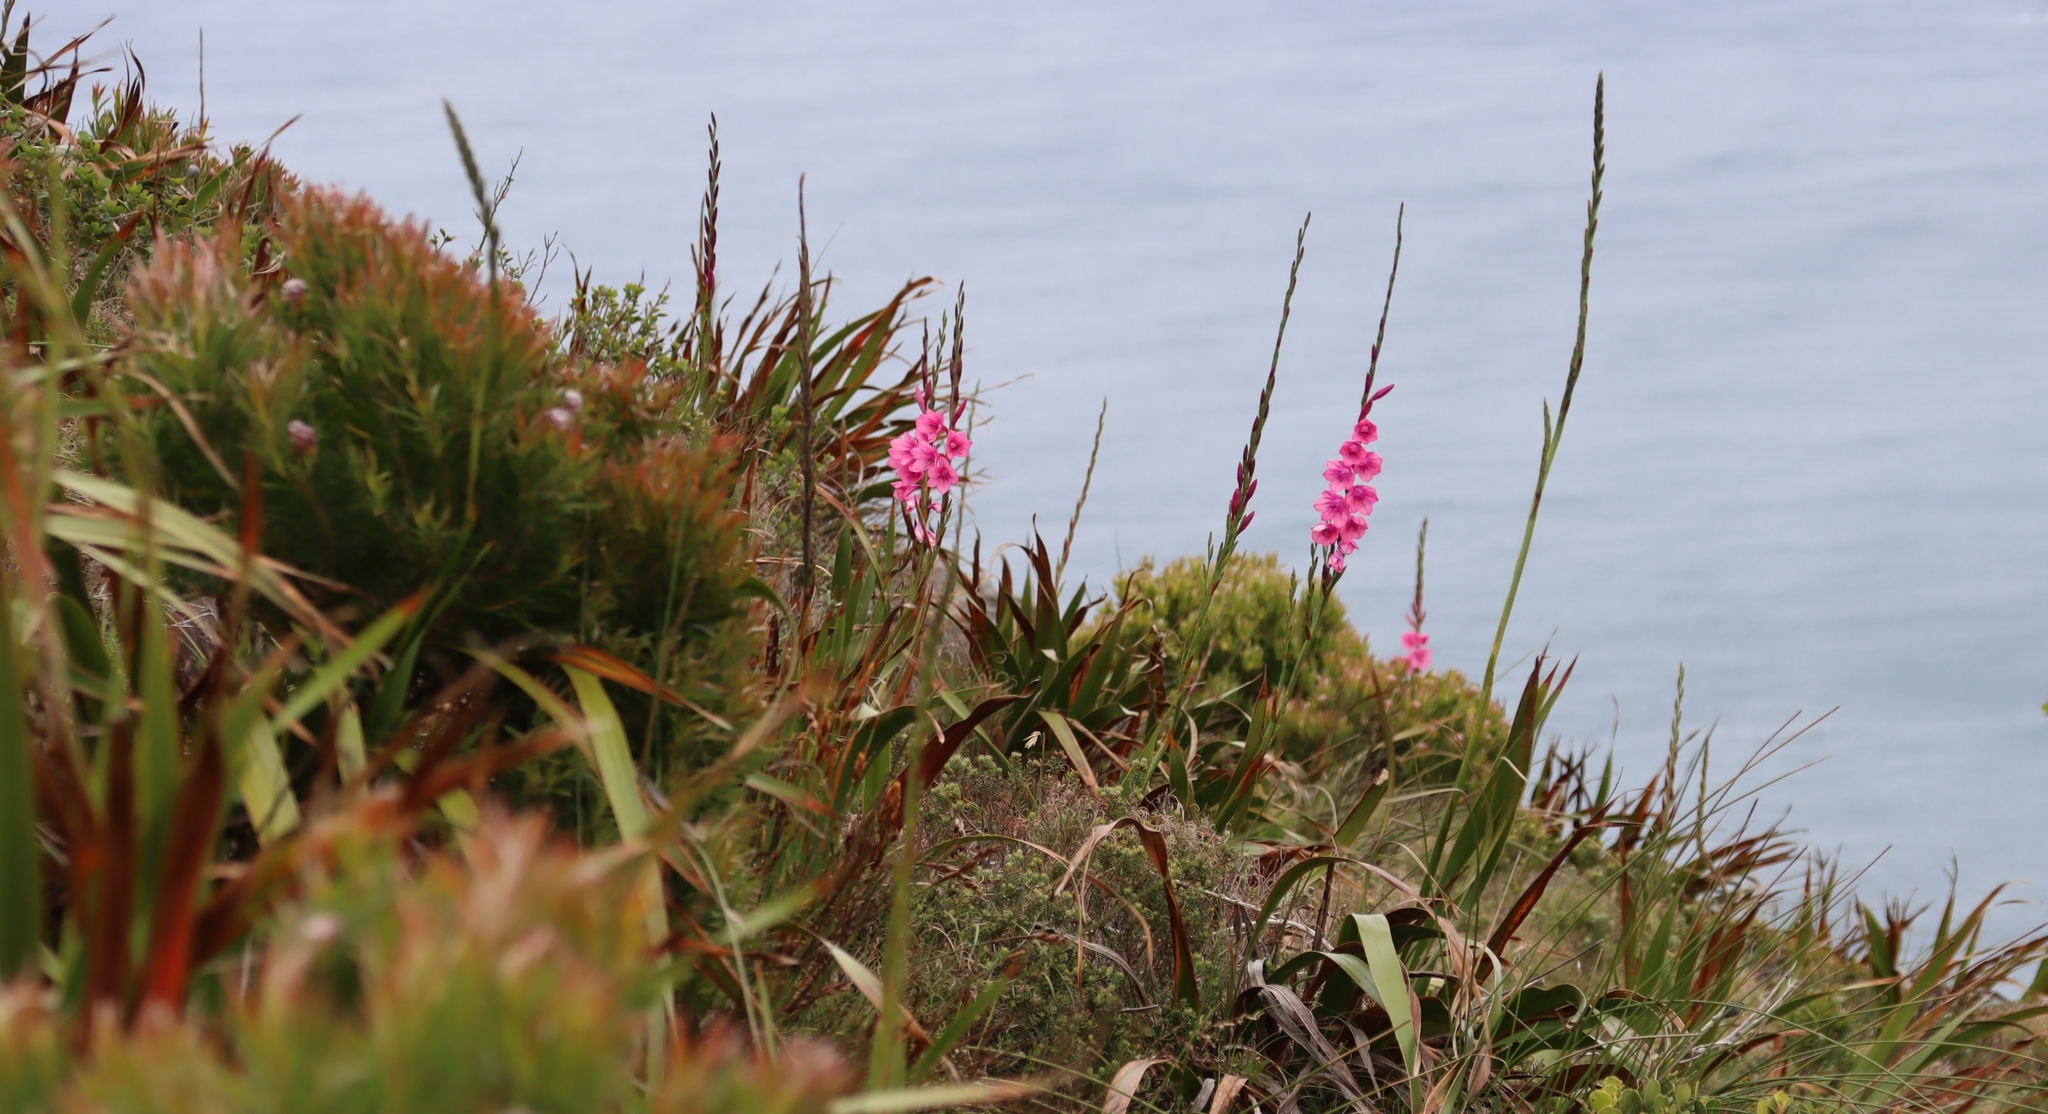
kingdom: Plantae
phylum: Tracheophyta
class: Liliopsida
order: Asparagales
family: Iridaceae
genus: Watsonia
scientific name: Watsonia borbonica
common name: Bugle-lily
